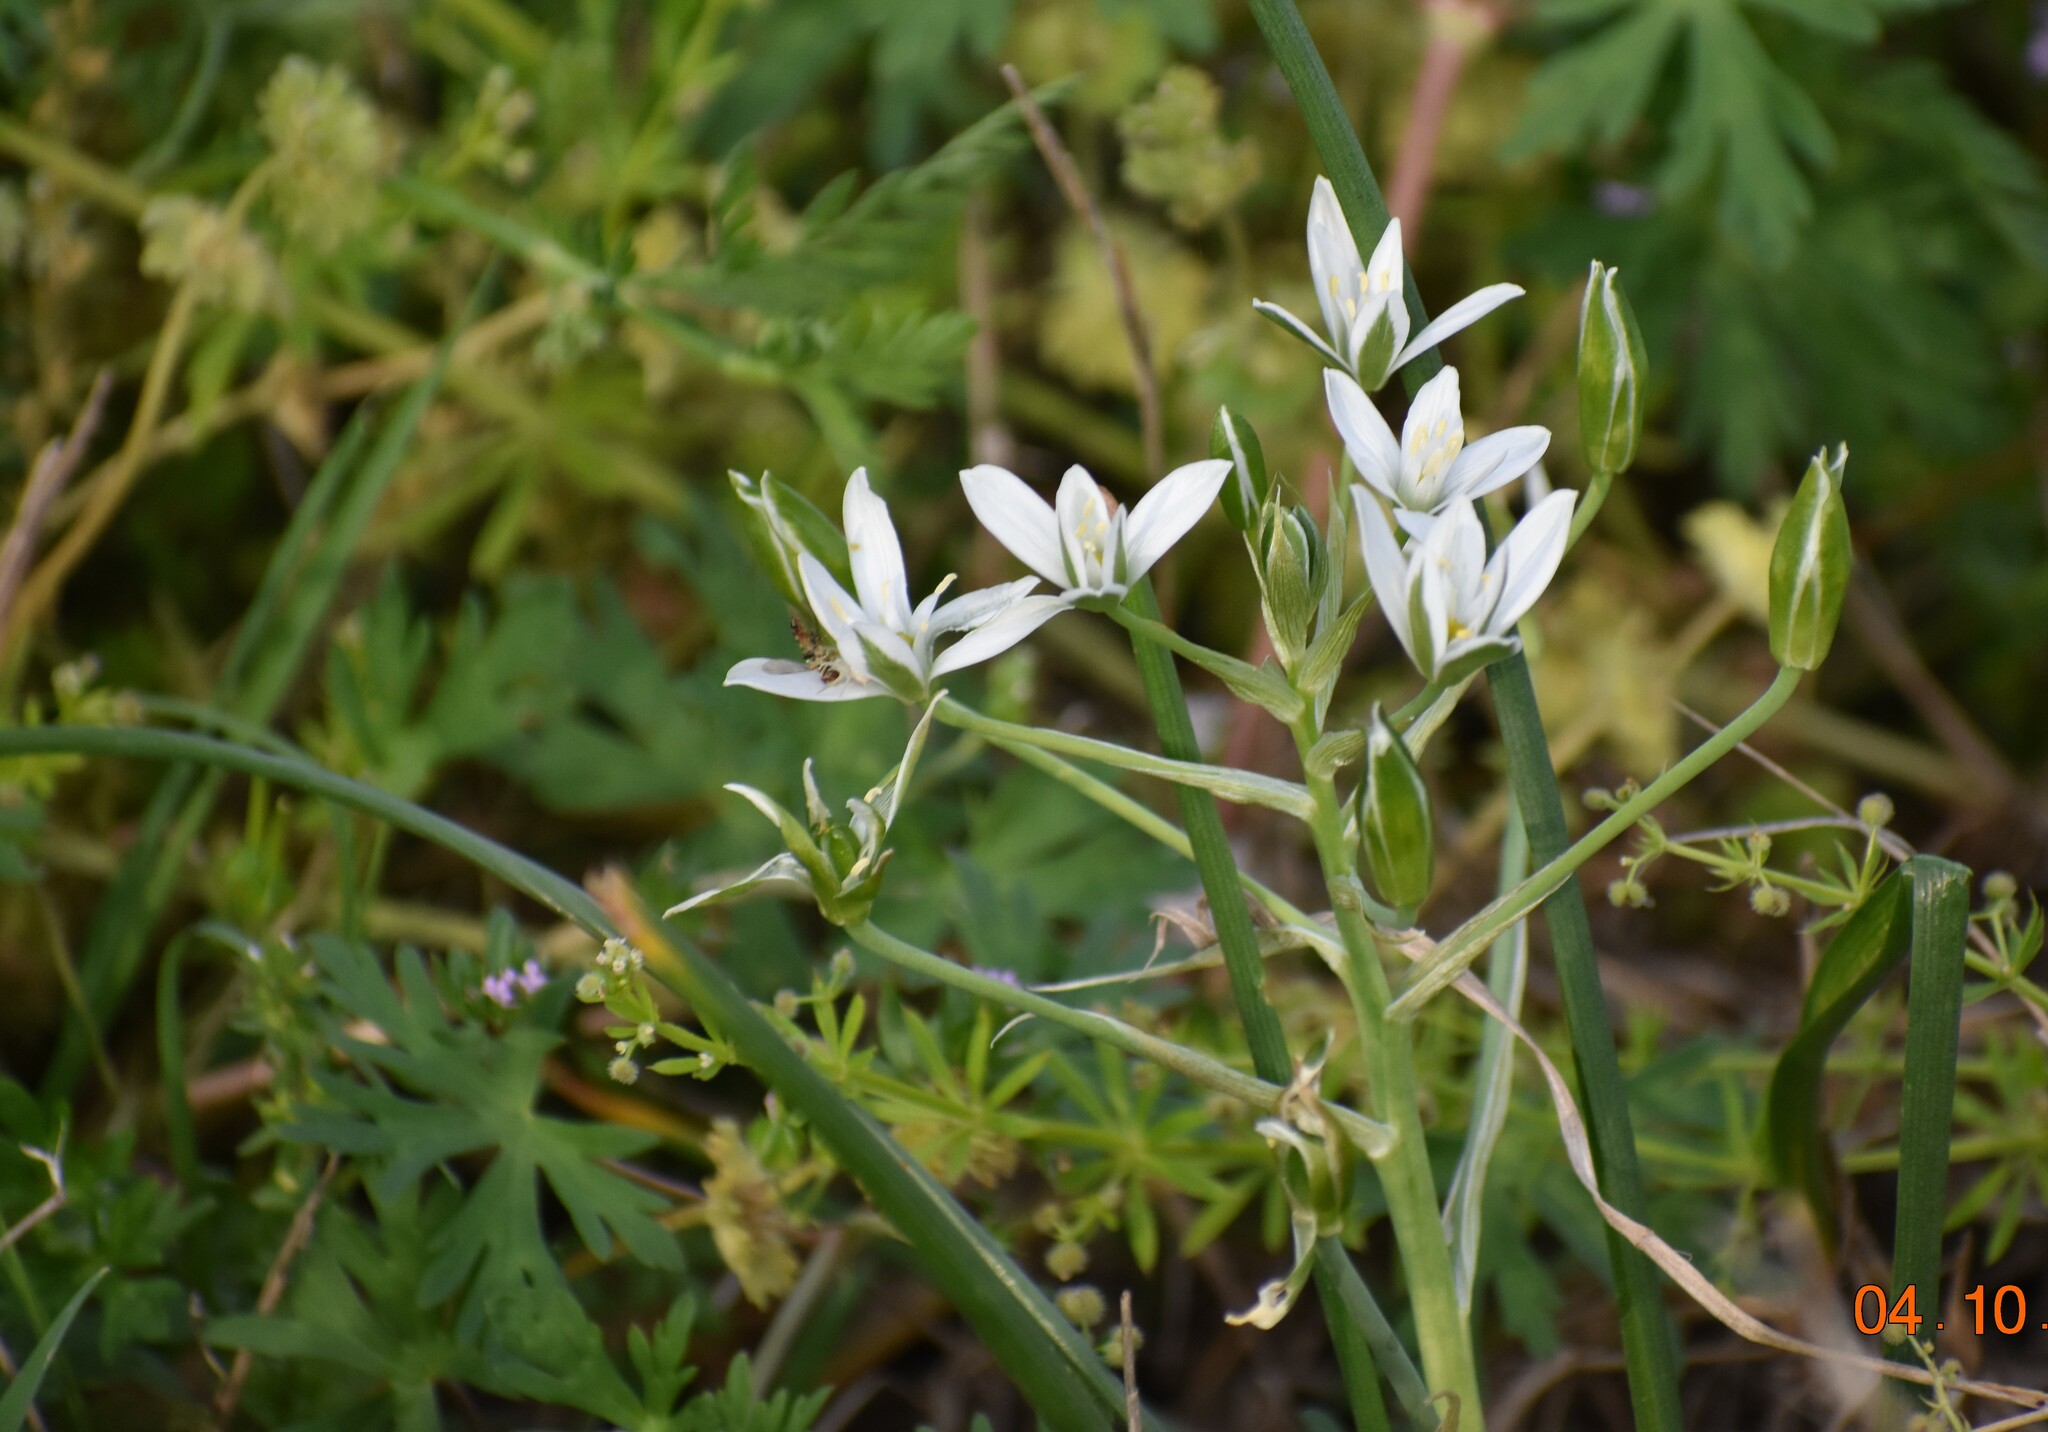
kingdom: Plantae
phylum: Tracheophyta
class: Liliopsida
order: Asparagales
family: Asparagaceae
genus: Ornithogalum
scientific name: Ornithogalum umbellatum
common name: Garden star-of-bethlehem
